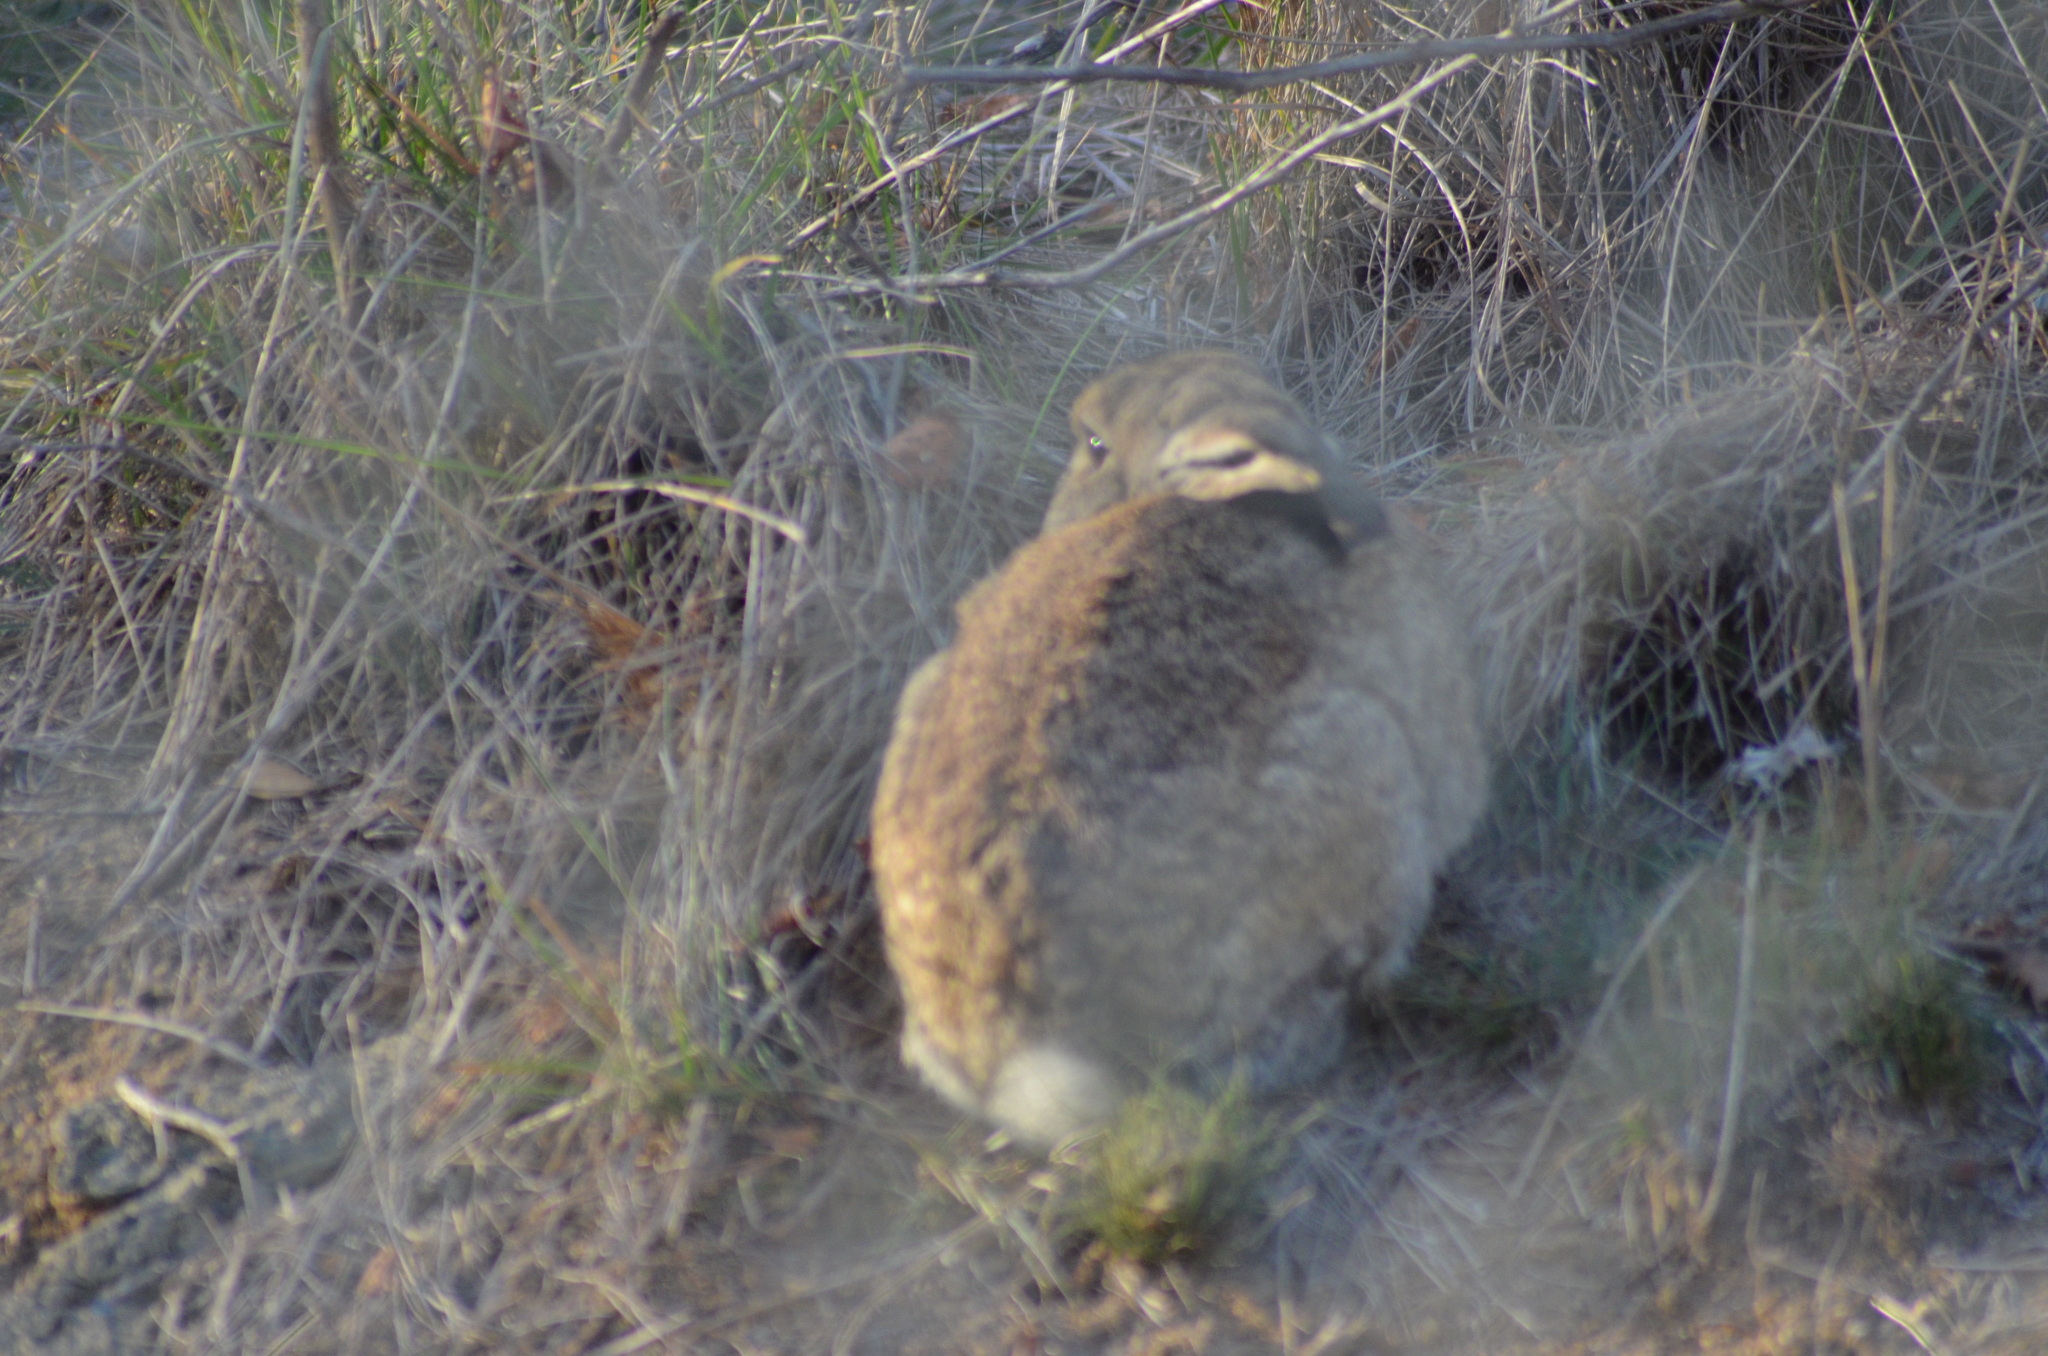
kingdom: Animalia
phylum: Chordata
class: Mammalia
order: Lagomorpha
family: Leporidae
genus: Oryctolagus
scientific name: Oryctolagus cuniculus
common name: European rabbit
